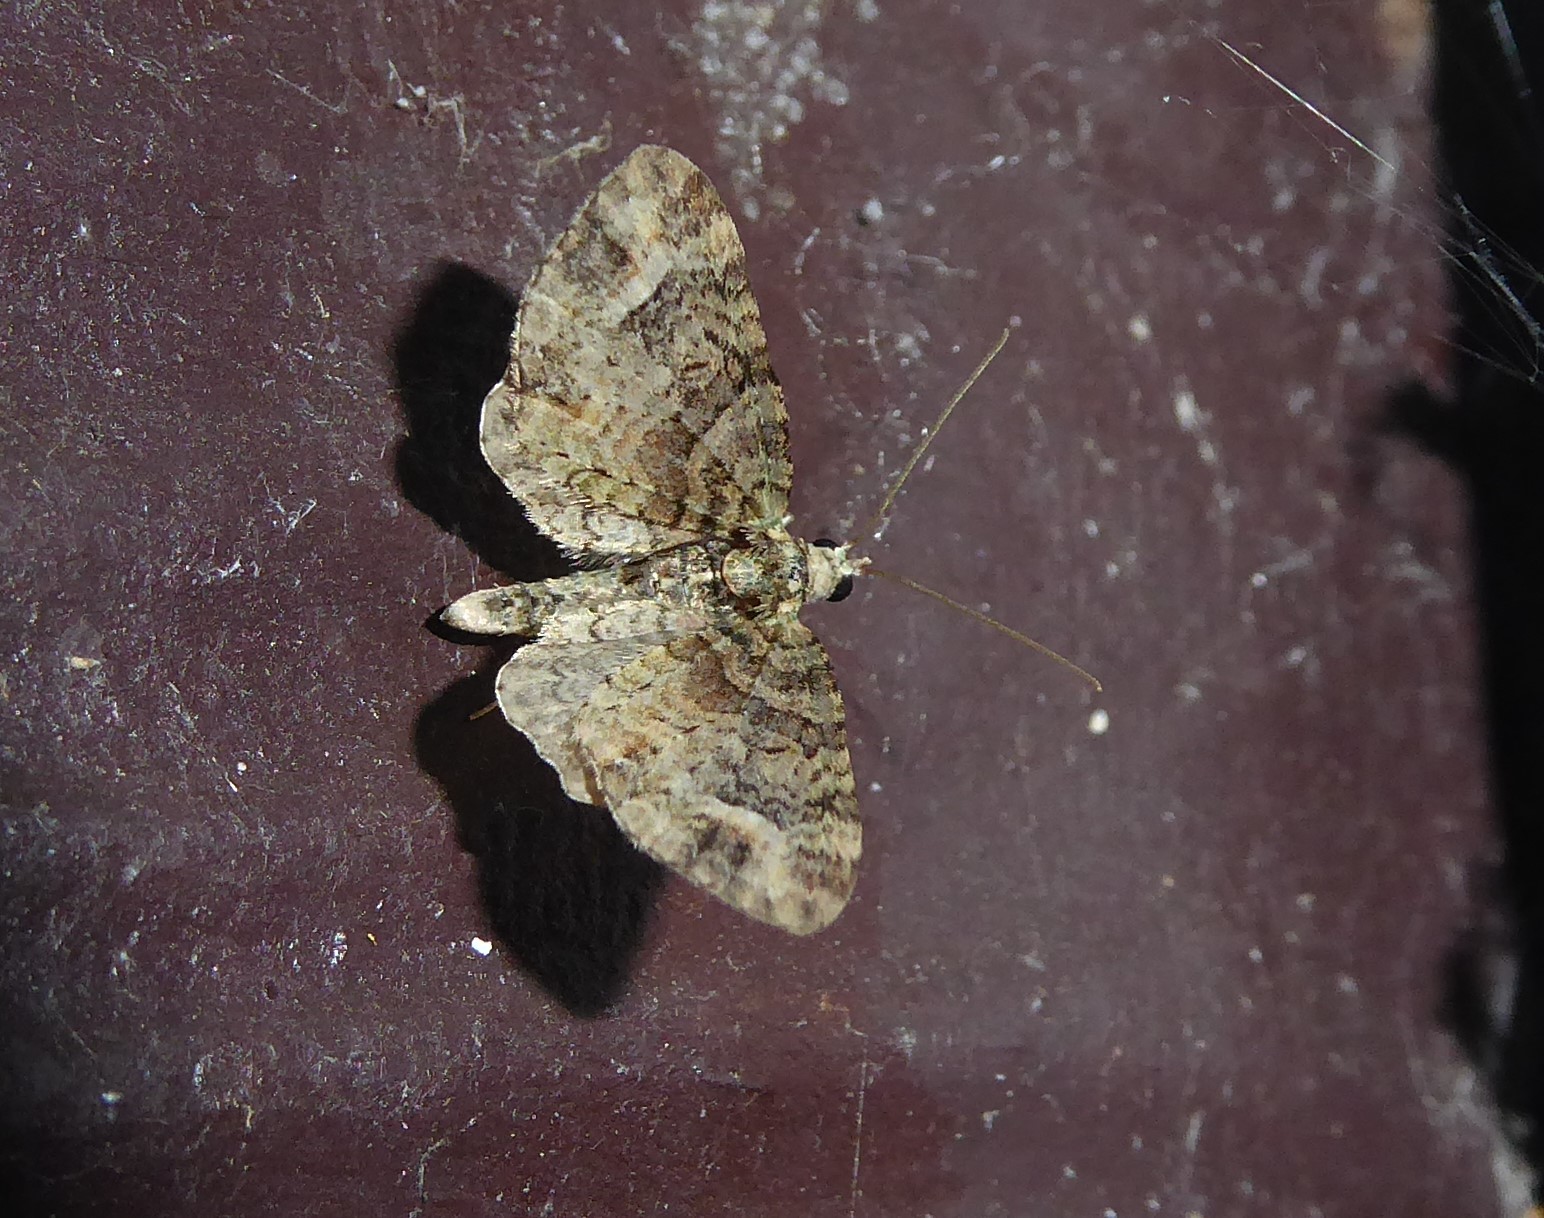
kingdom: Animalia
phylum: Arthropoda
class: Insecta
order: Lepidoptera
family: Geometridae
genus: Idaea
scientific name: Idaea mutanda
